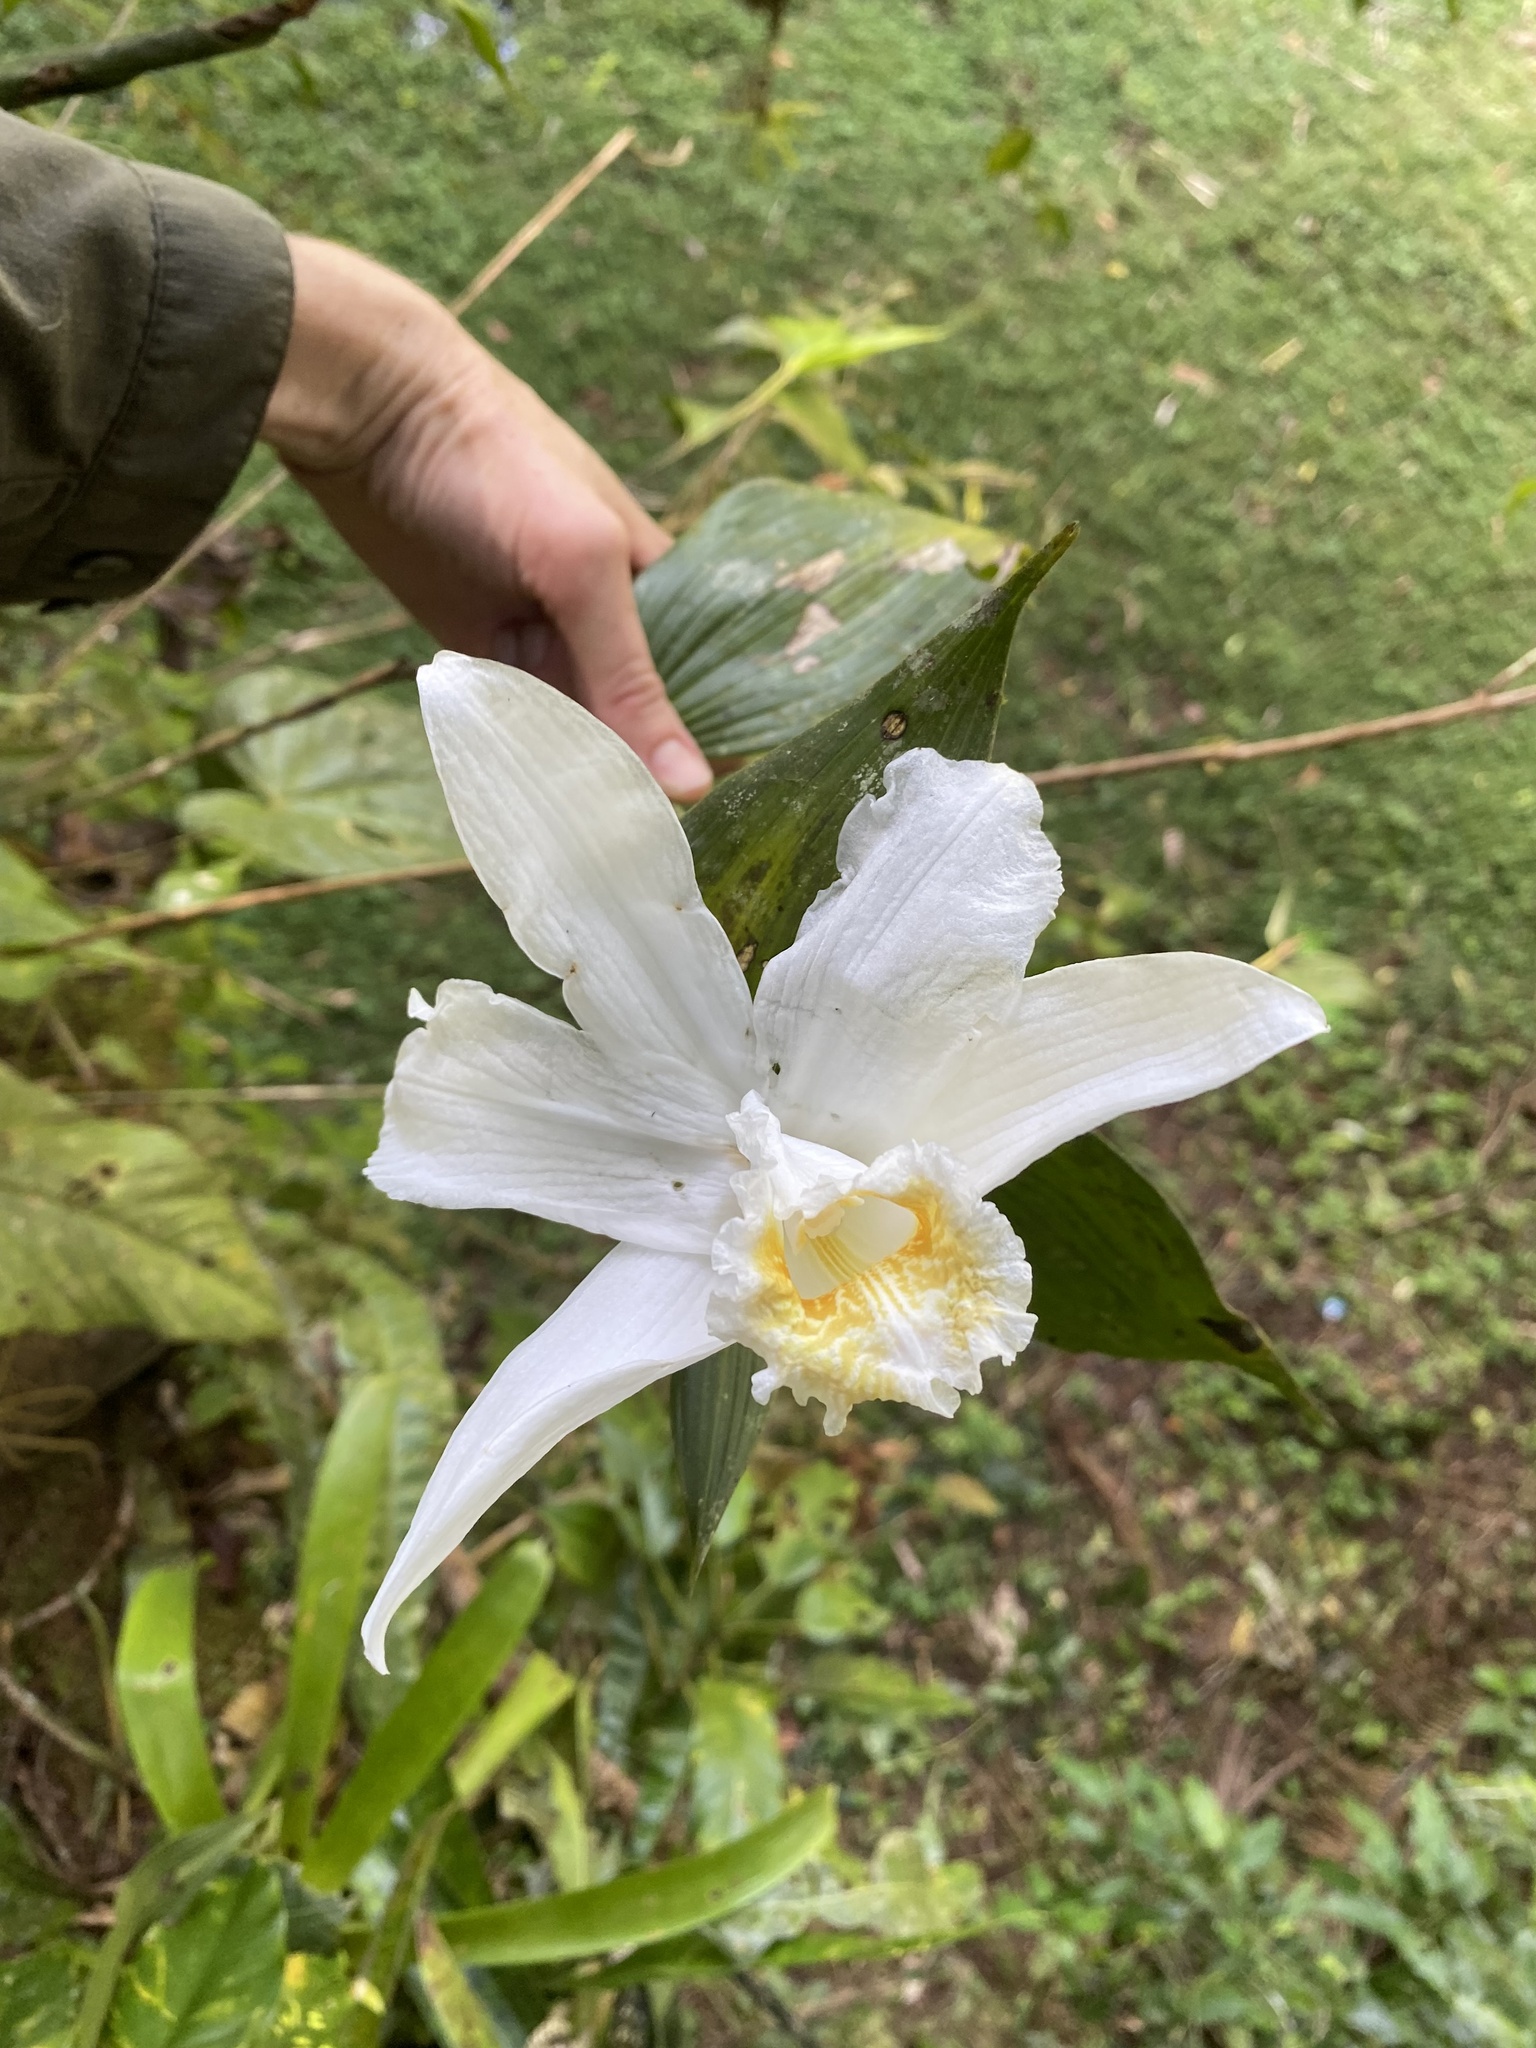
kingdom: Plantae
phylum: Tracheophyta
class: Liliopsida
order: Asparagales
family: Orchidaceae
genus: Sobralia
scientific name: Sobralia chrysostoma
